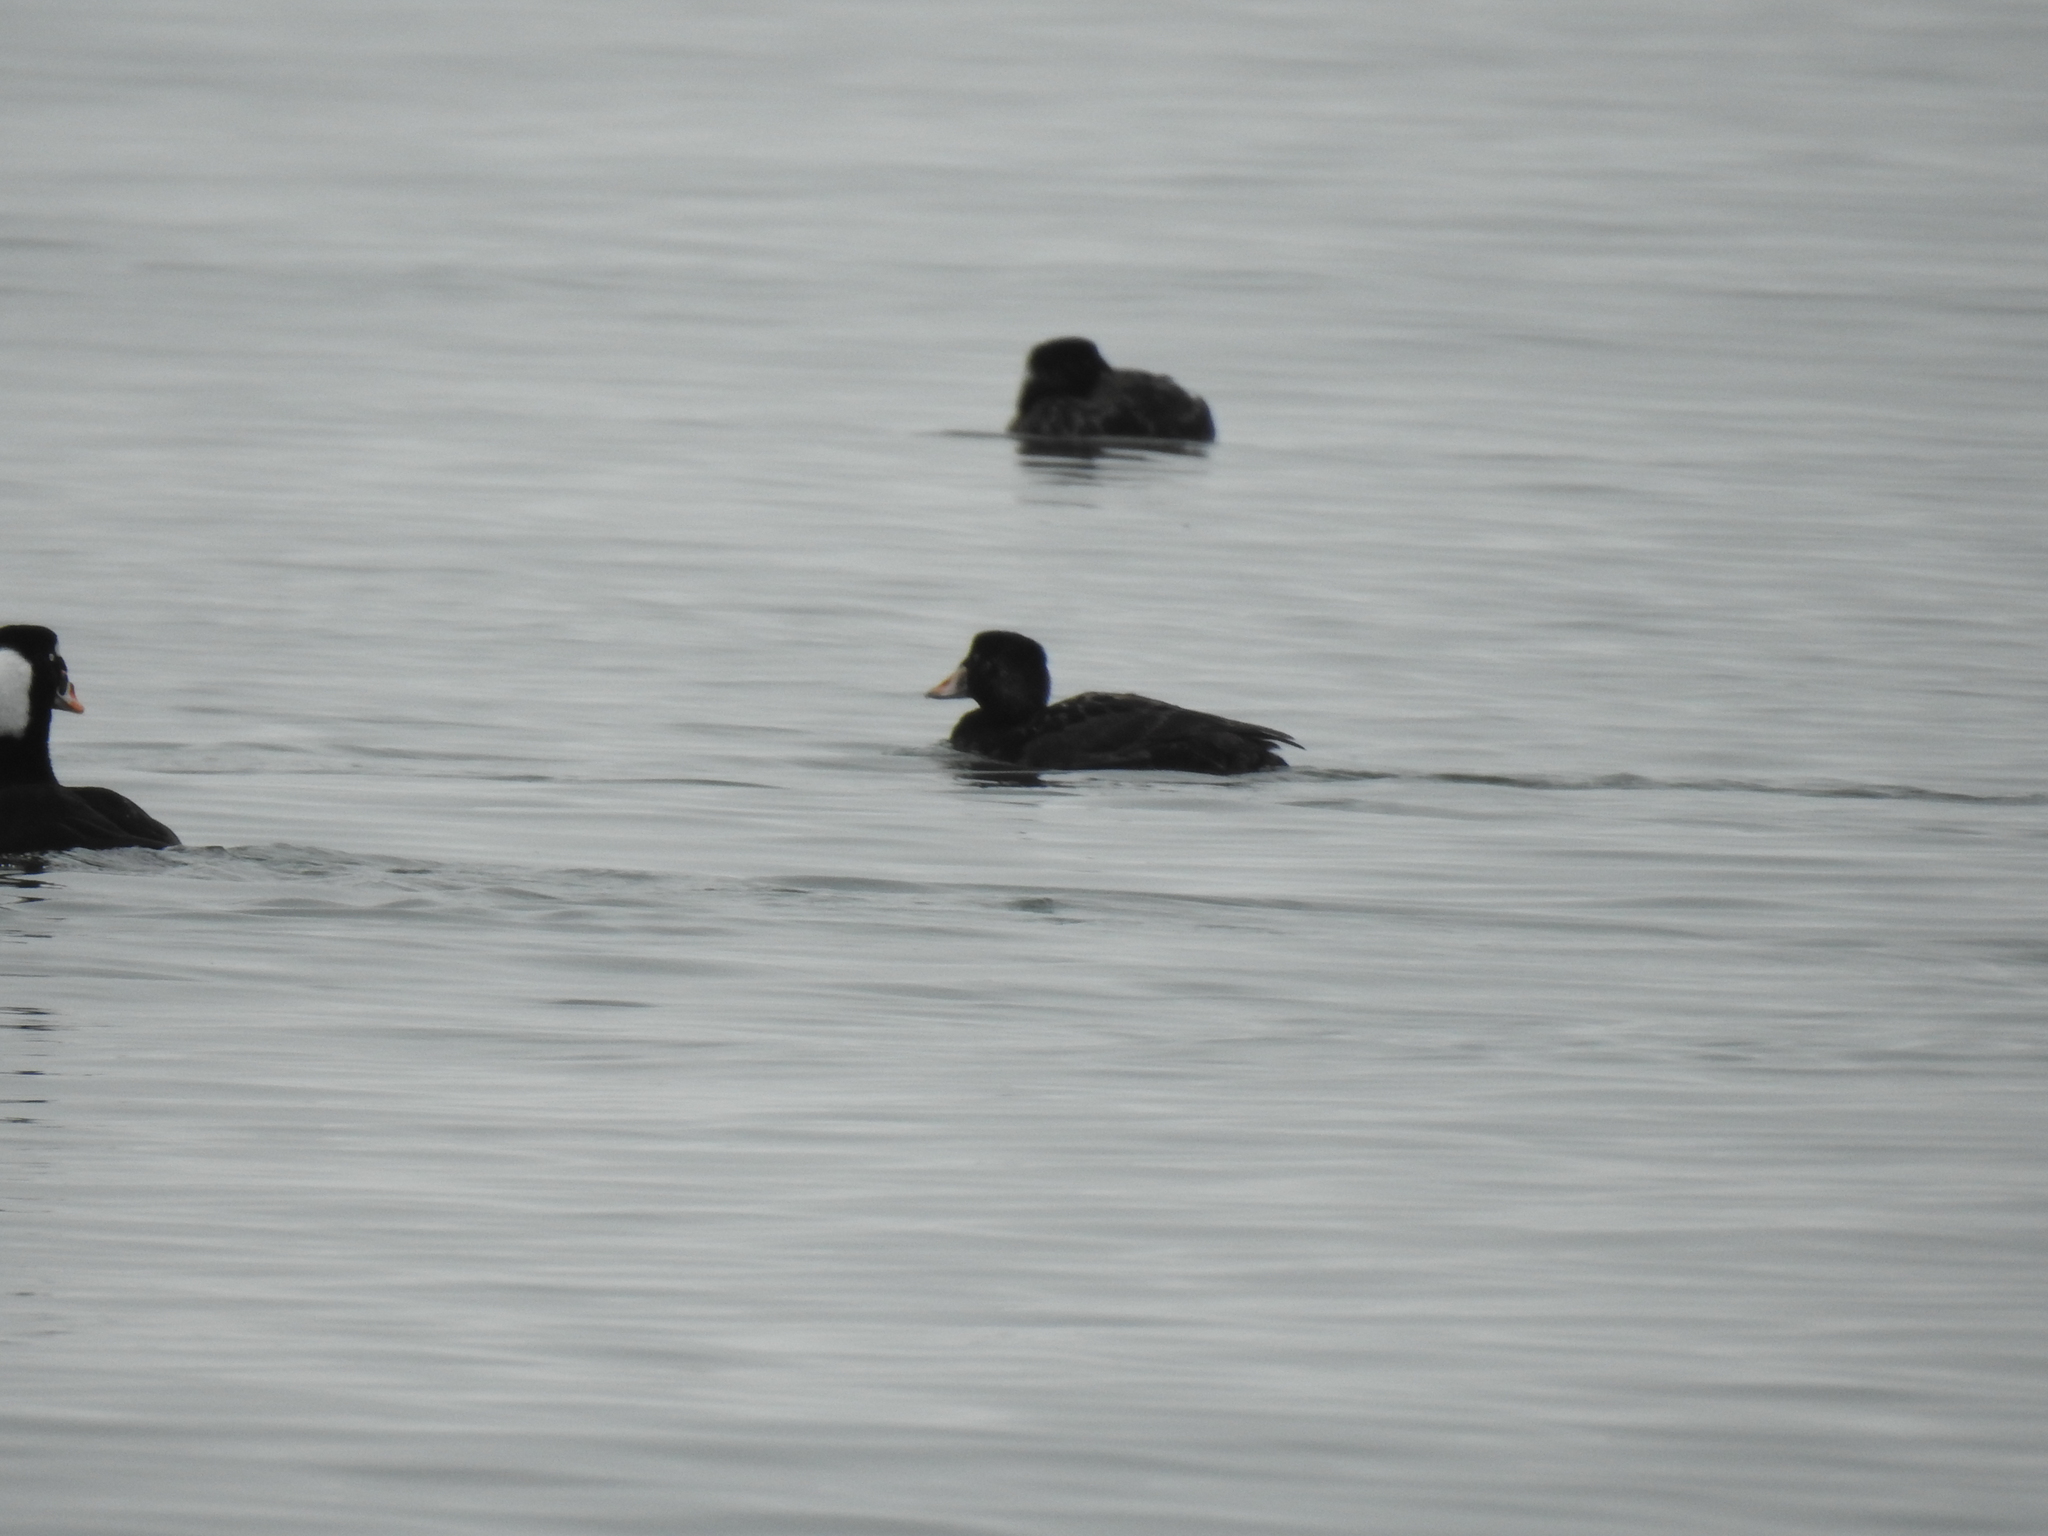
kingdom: Animalia
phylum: Chordata
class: Aves
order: Anseriformes
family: Anatidae
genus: Melanitta
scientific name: Melanitta perspicillata
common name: Surf scoter
